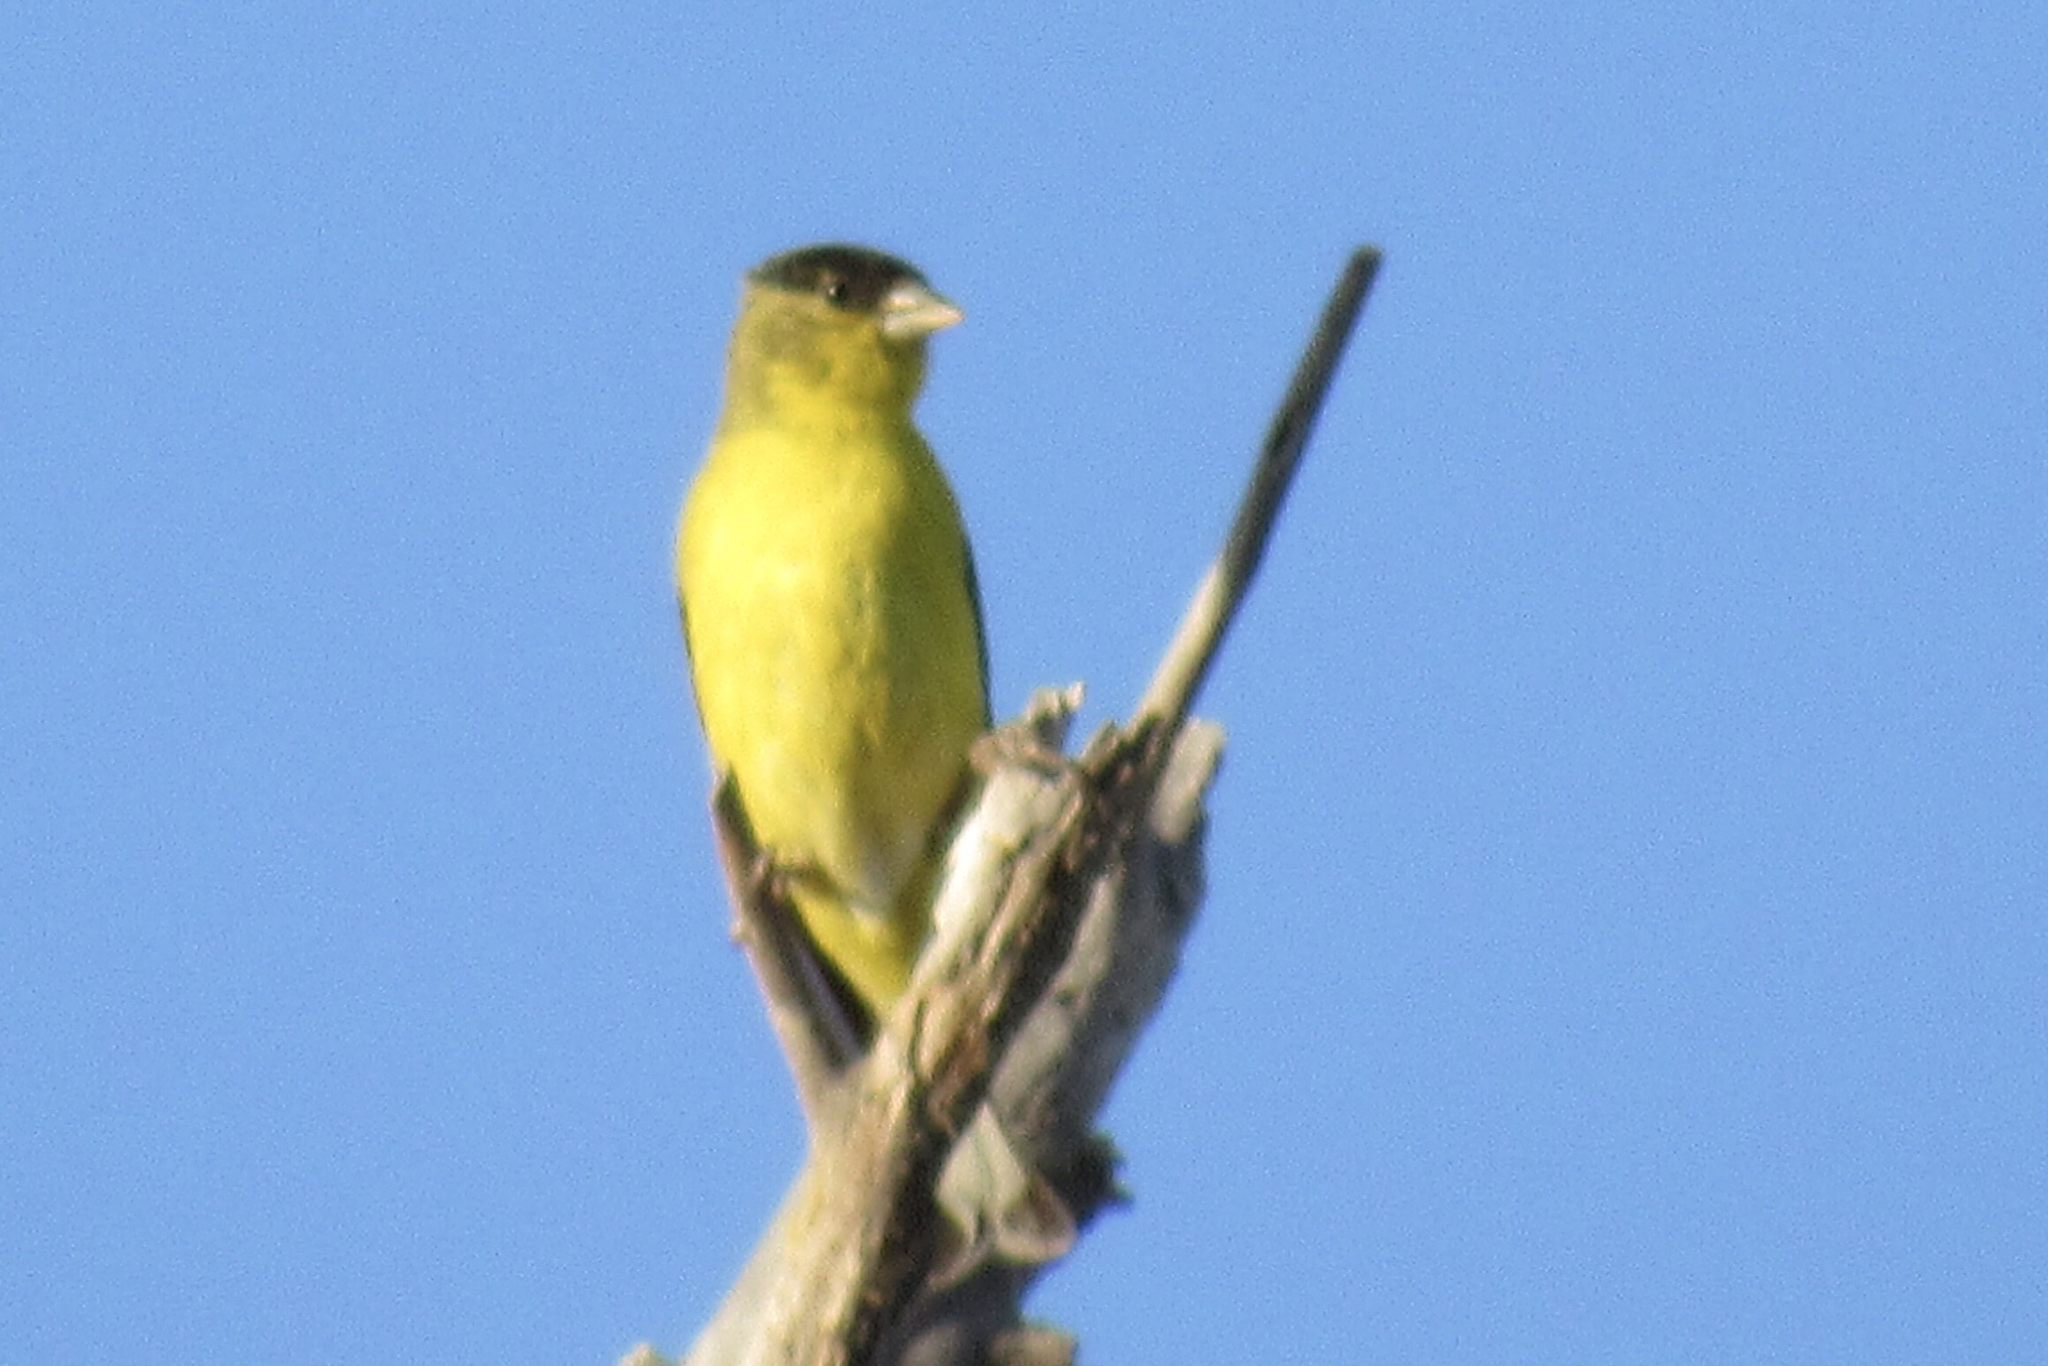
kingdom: Animalia
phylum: Chordata
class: Aves
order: Passeriformes
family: Fringillidae
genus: Spinus
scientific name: Spinus psaltria
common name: Lesser goldfinch
